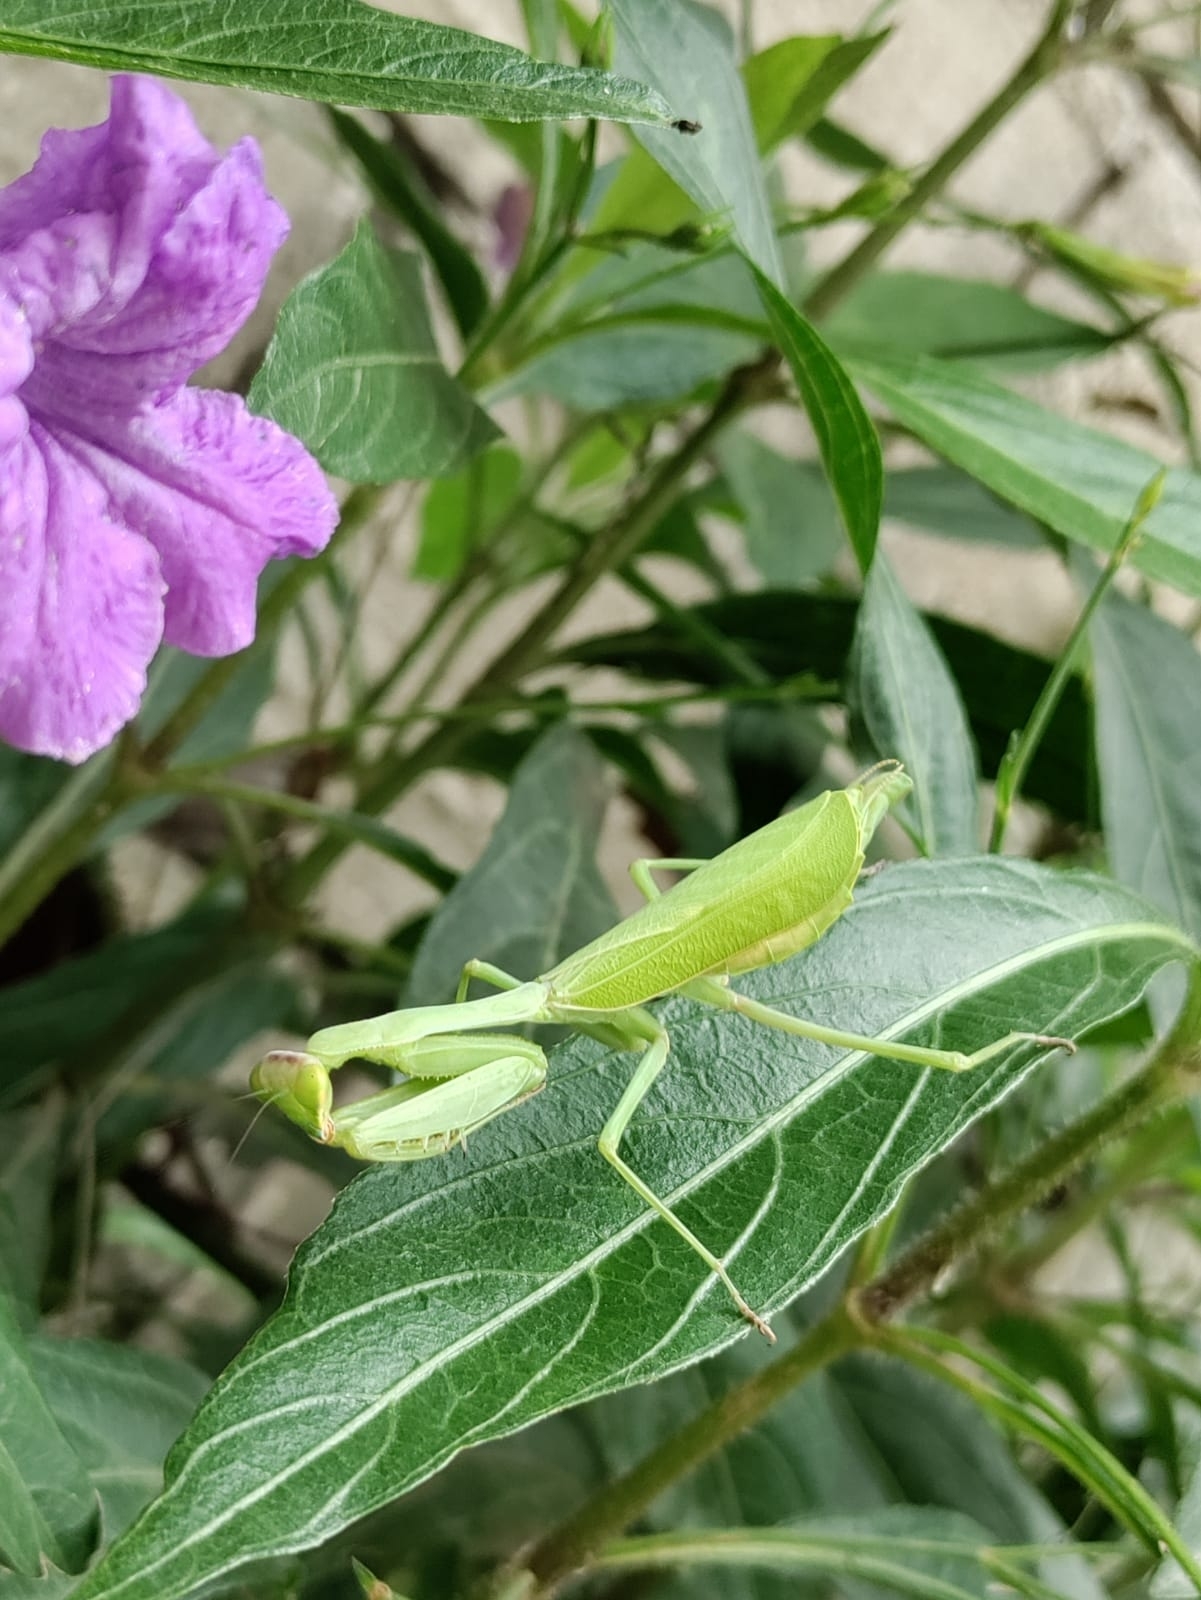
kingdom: Animalia
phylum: Arthropoda
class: Insecta
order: Mantodea
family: Mantidae
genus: Stagmomantis
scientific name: Stagmomantis limbata
